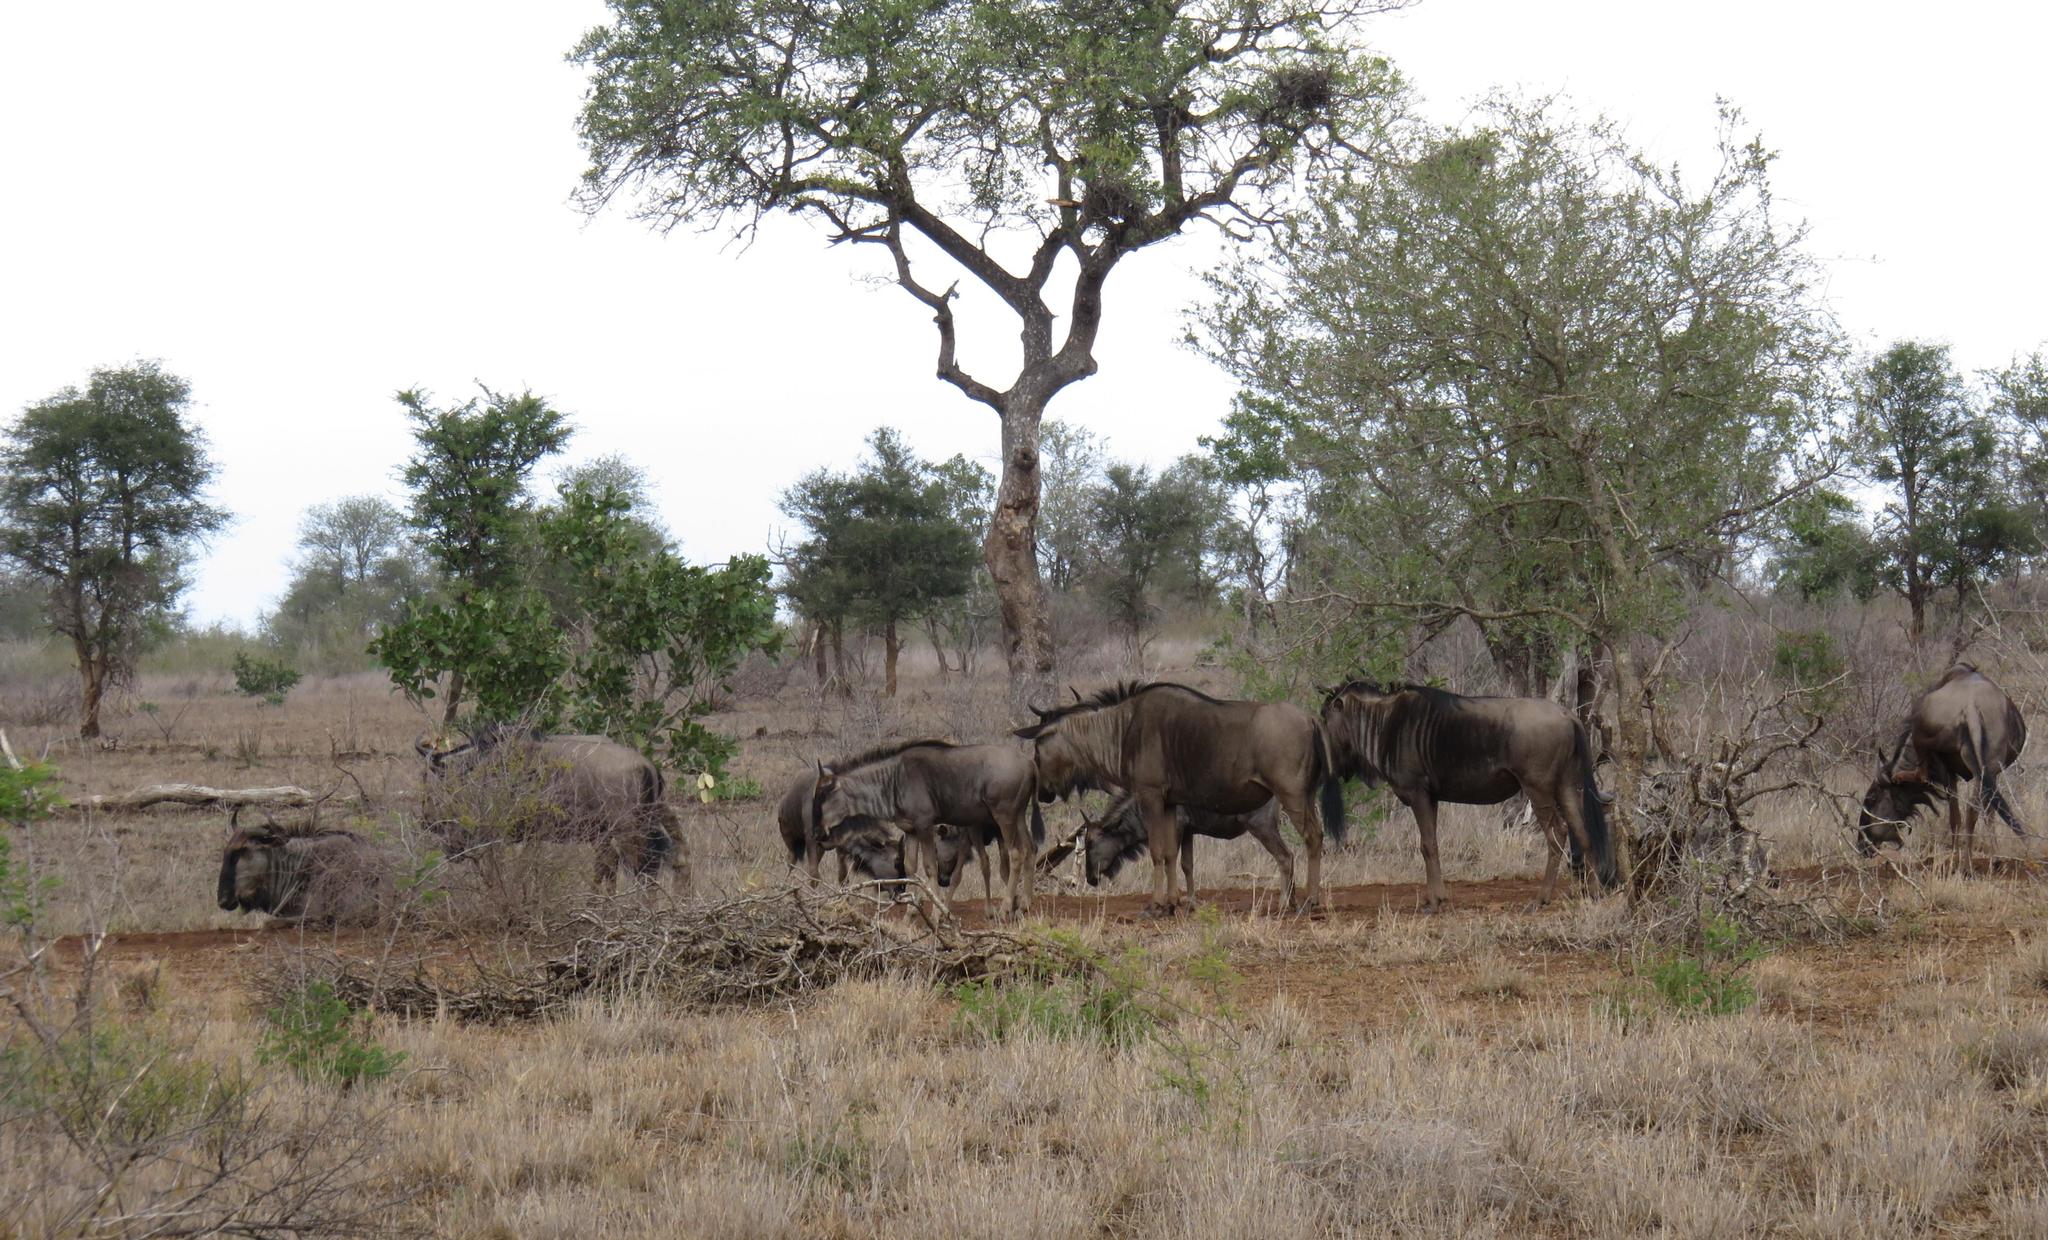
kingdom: Animalia
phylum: Chordata
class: Mammalia
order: Artiodactyla
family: Bovidae
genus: Connochaetes
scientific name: Connochaetes taurinus
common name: Blue wildebeest
